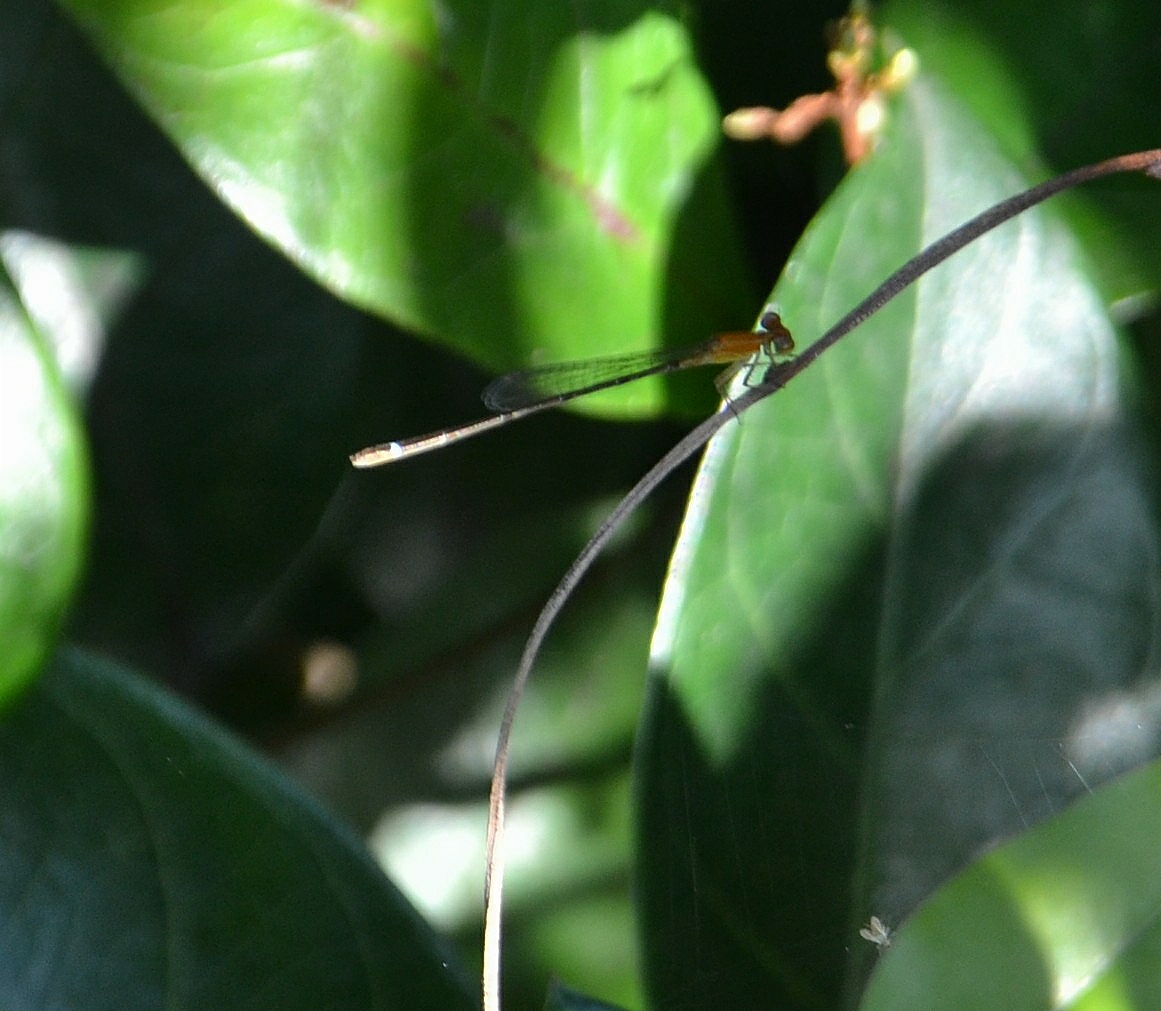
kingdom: Animalia
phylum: Arthropoda
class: Insecta
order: Odonata
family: Coenagrionidae
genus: Mortonagrion
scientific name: Mortonagrion varralli
